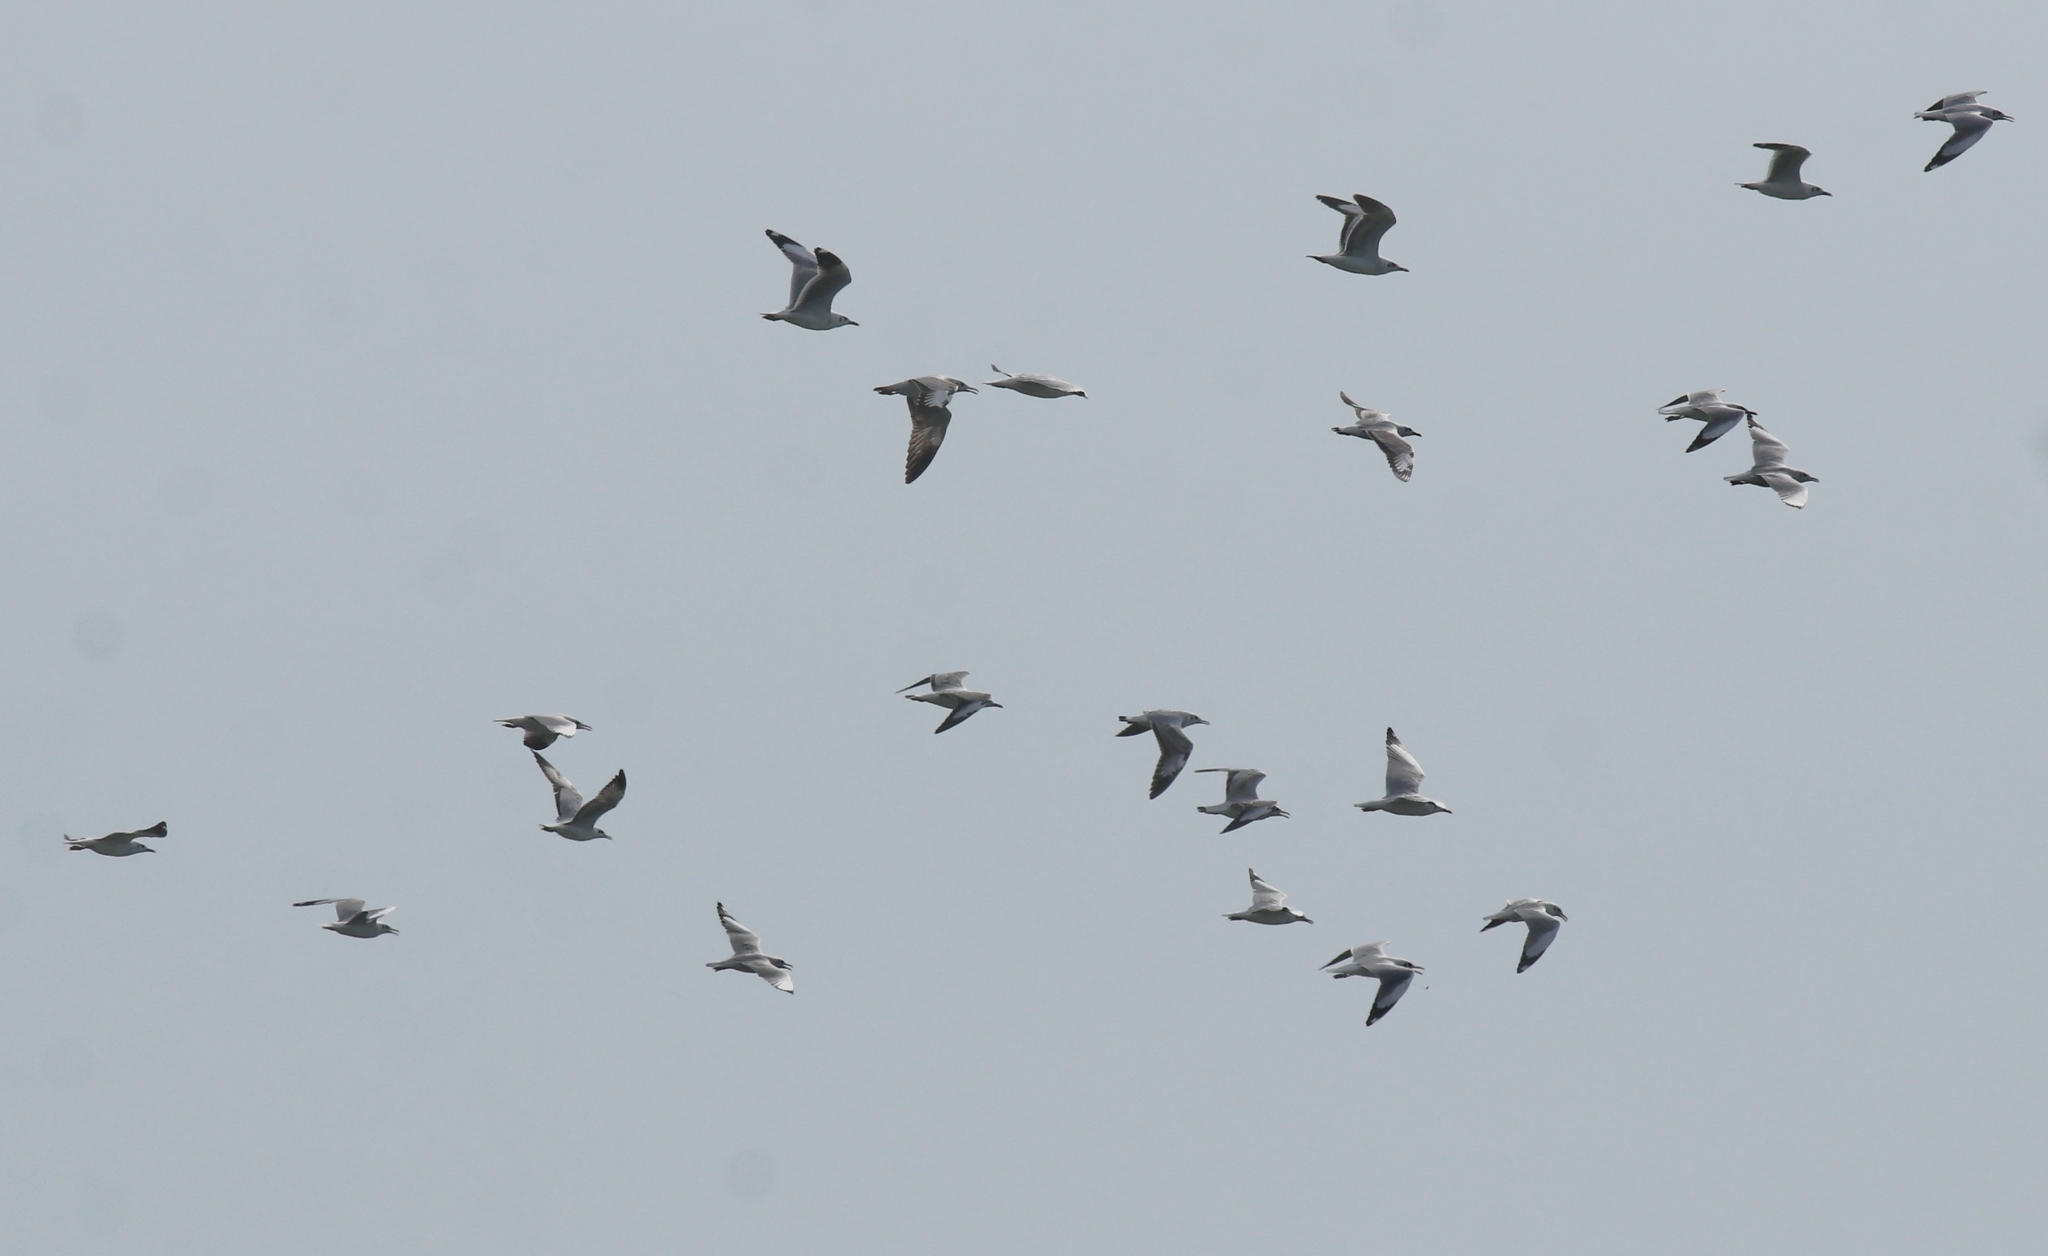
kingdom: Animalia
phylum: Chordata
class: Aves
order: Charadriiformes
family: Laridae
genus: Chroicocephalus
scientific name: Chroicocephalus brunnicephalus
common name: Brown-headed gull
